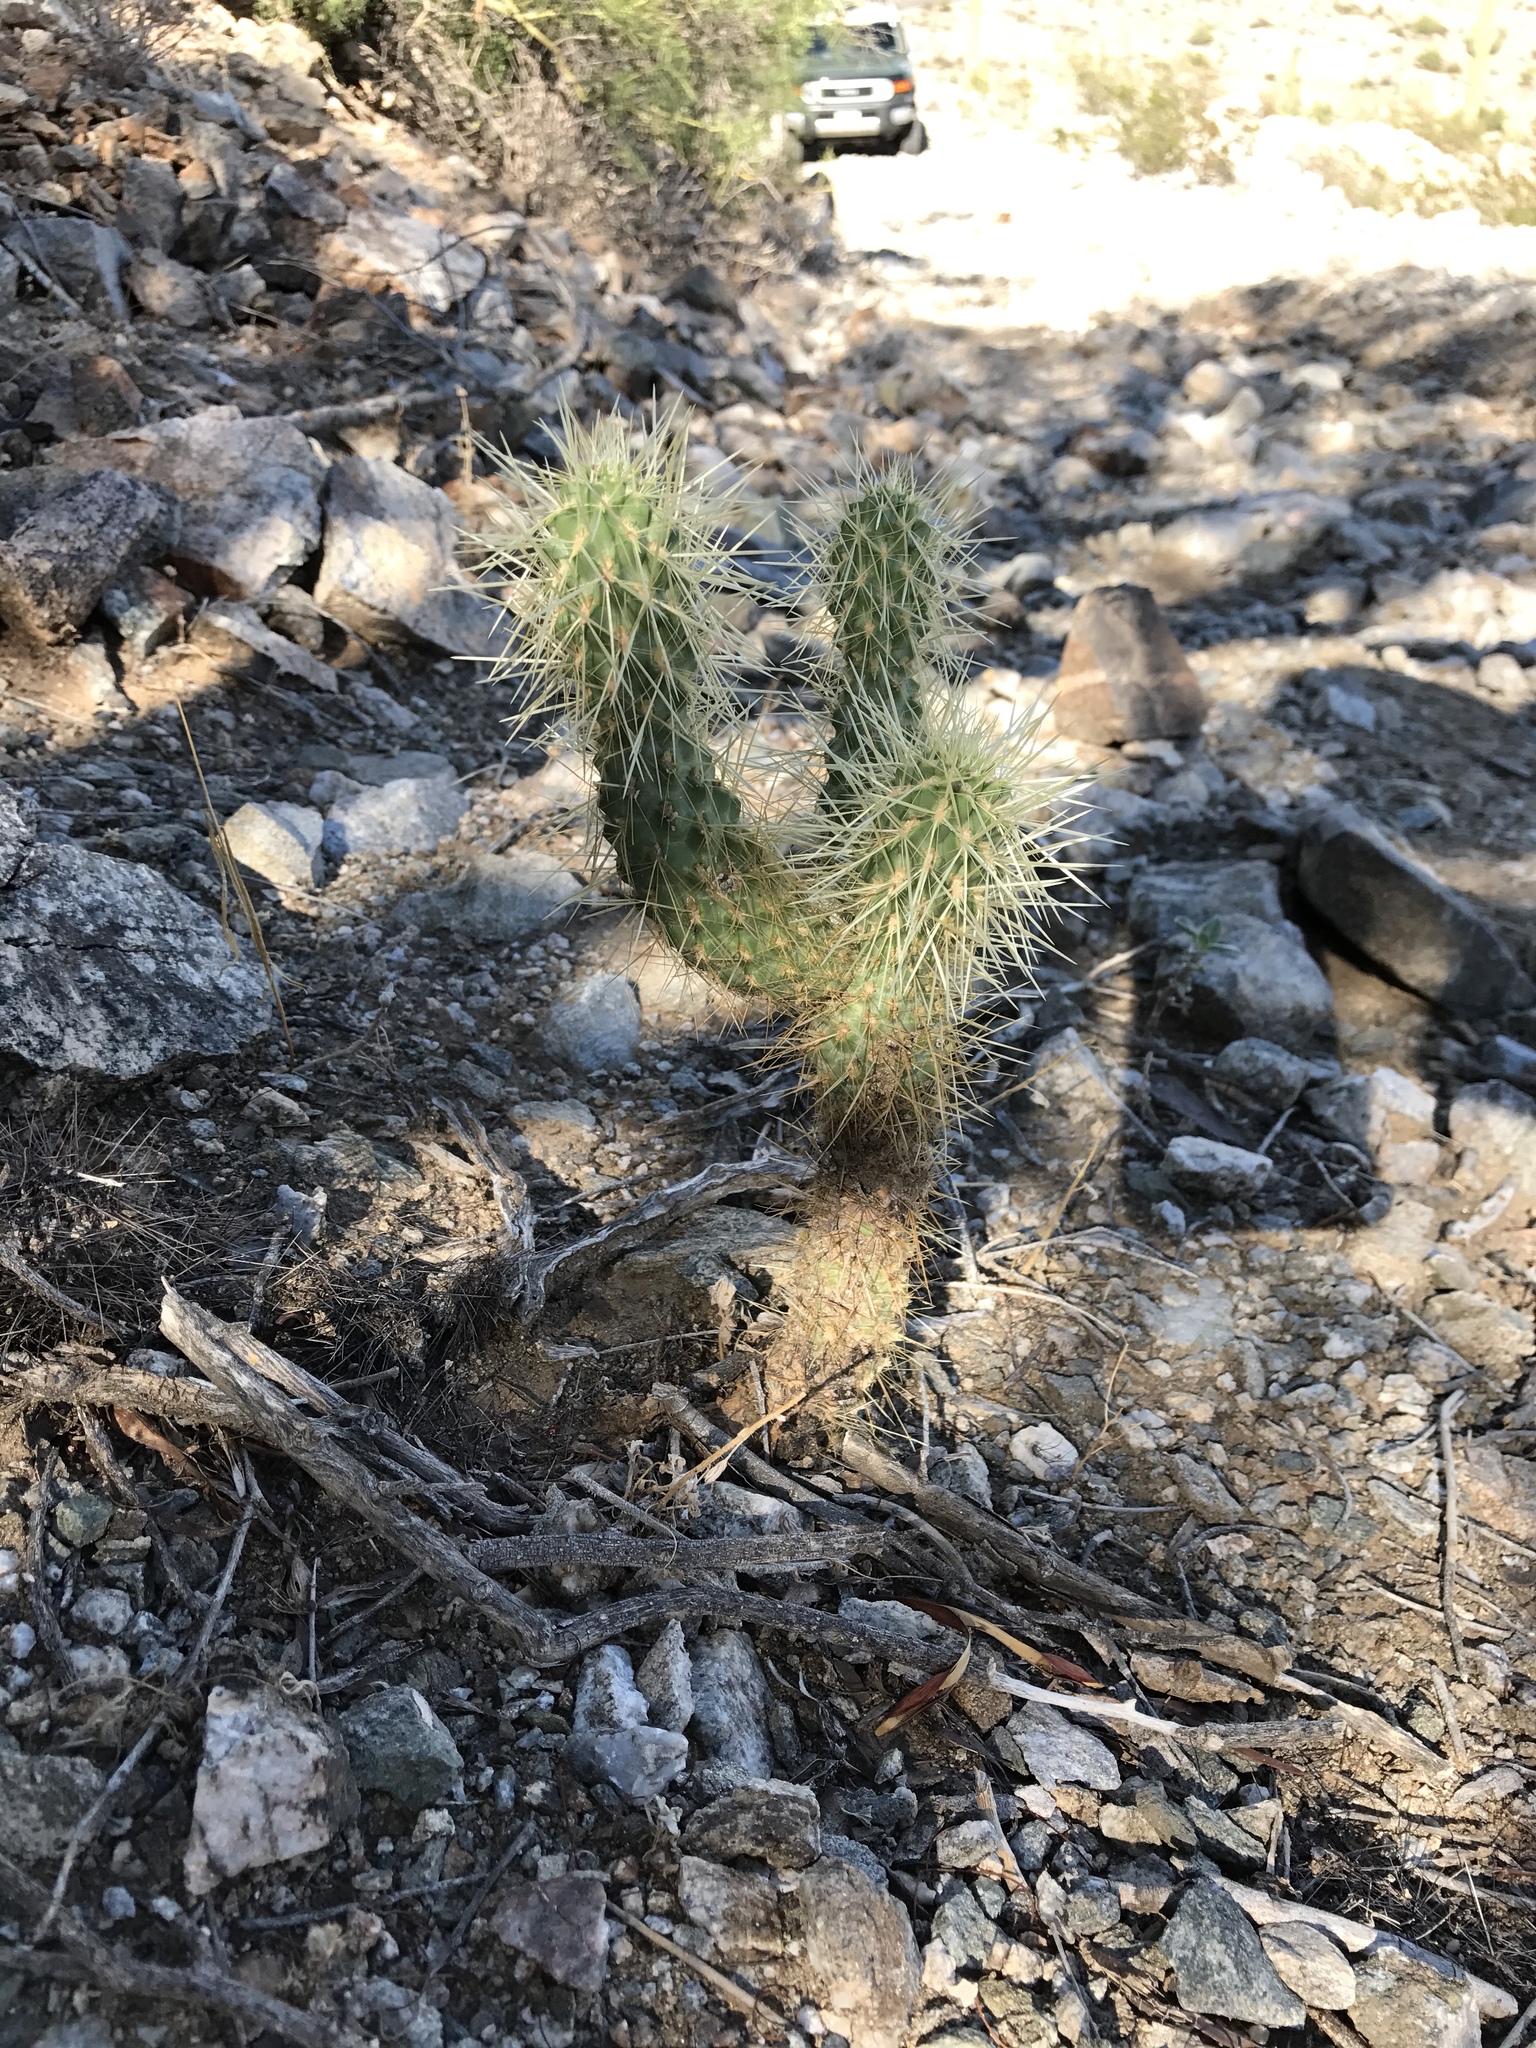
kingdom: Plantae
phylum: Tracheophyta
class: Magnoliopsida
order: Caryophyllales
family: Cactaceae
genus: Cylindropuntia
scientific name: Cylindropuntia fosbergii
